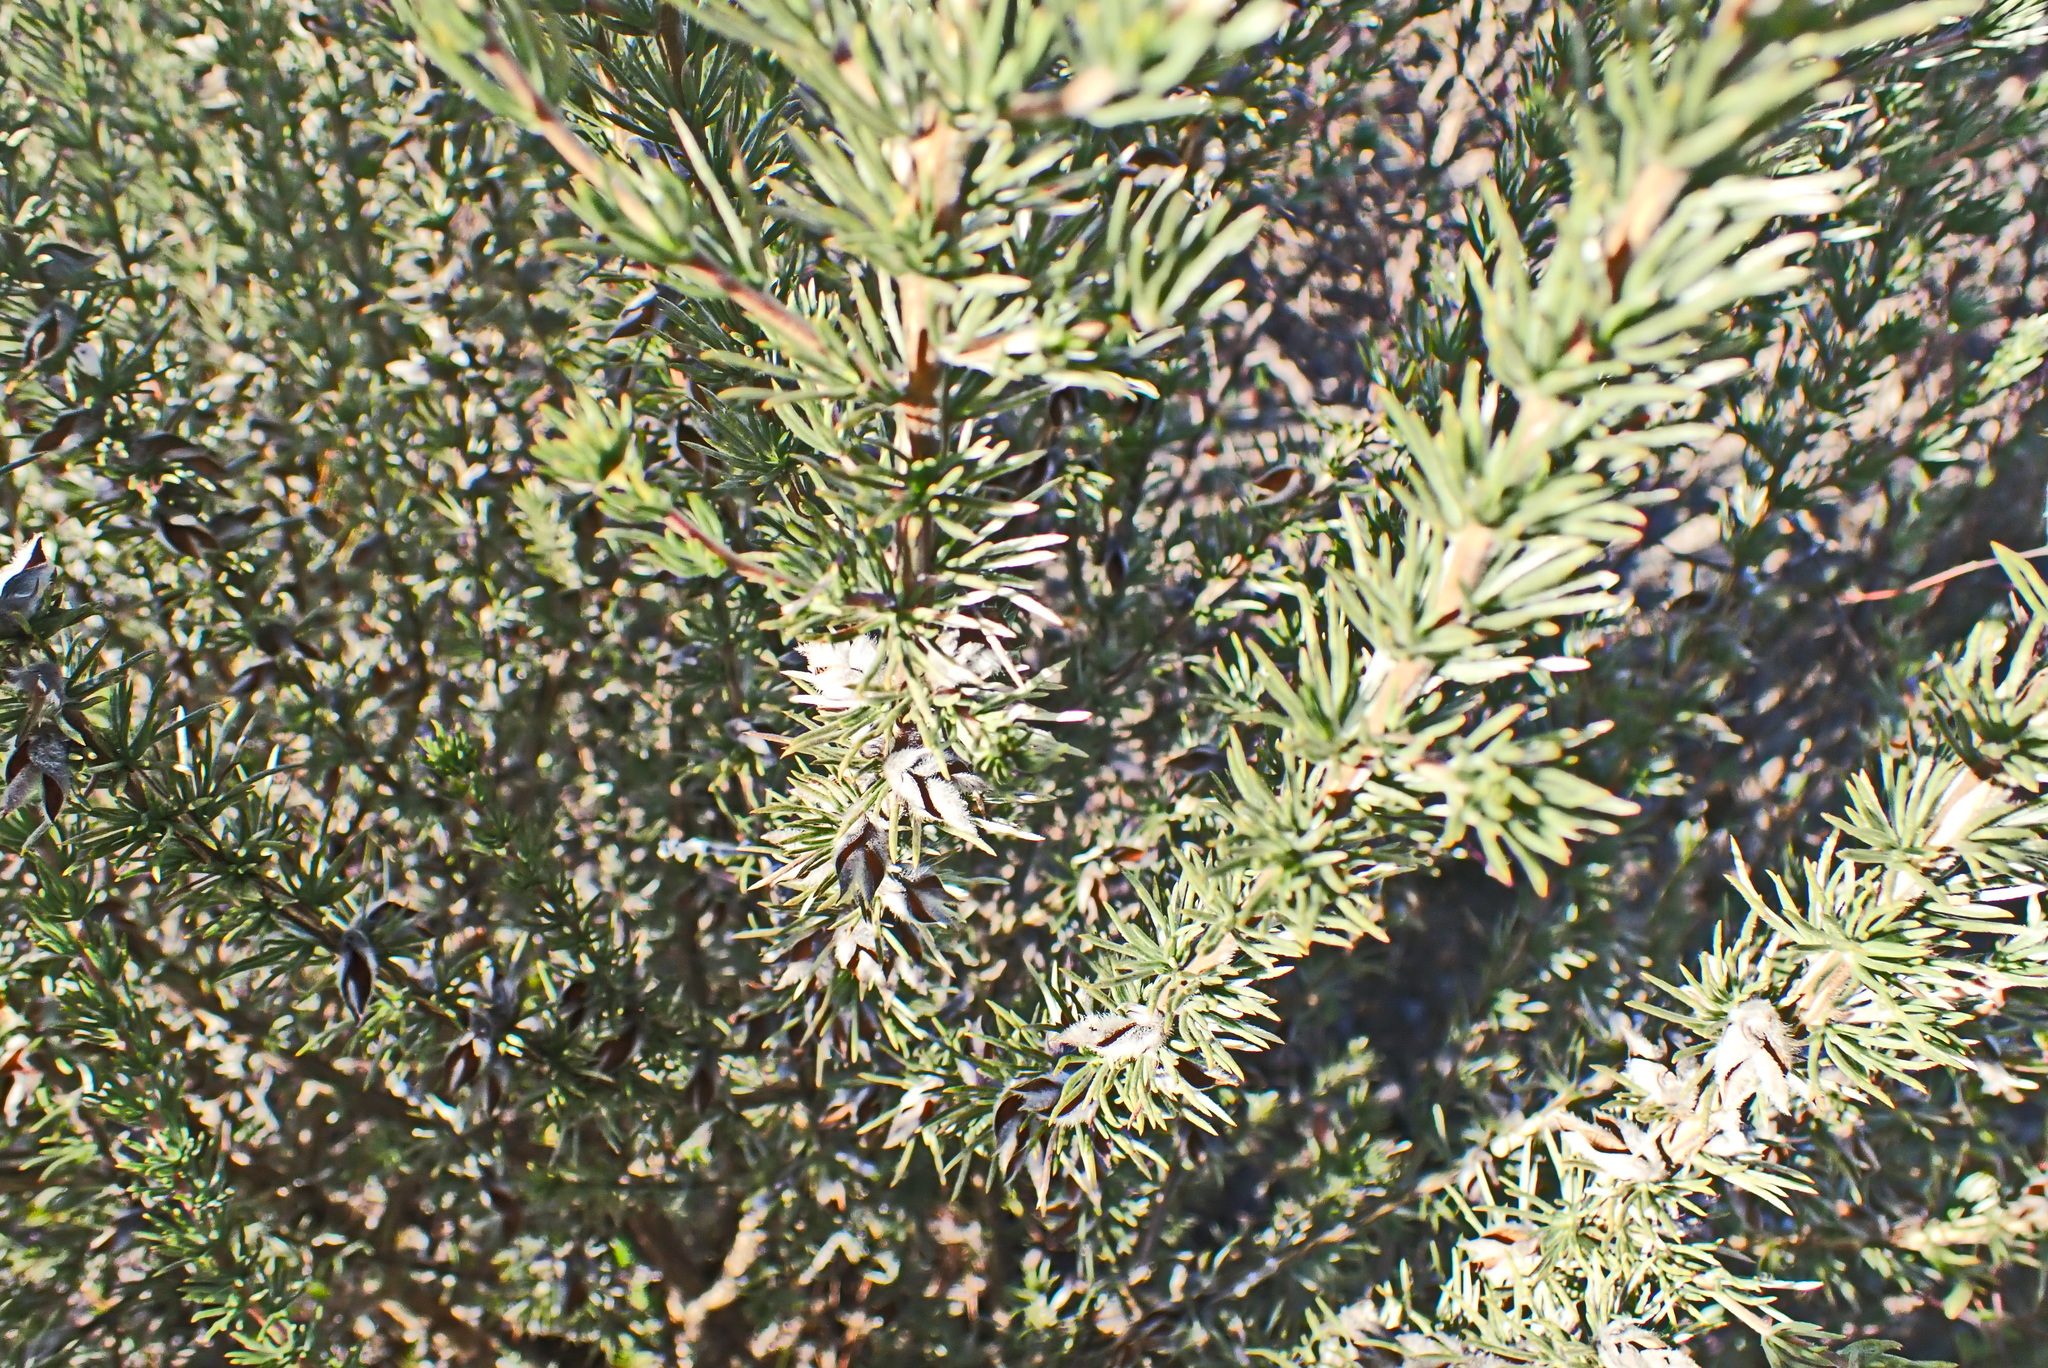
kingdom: Plantae
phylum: Tracheophyta
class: Magnoliopsida
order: Fabales
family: Fabaceae
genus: Aspalathus
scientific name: Aspalathus glabrescens
